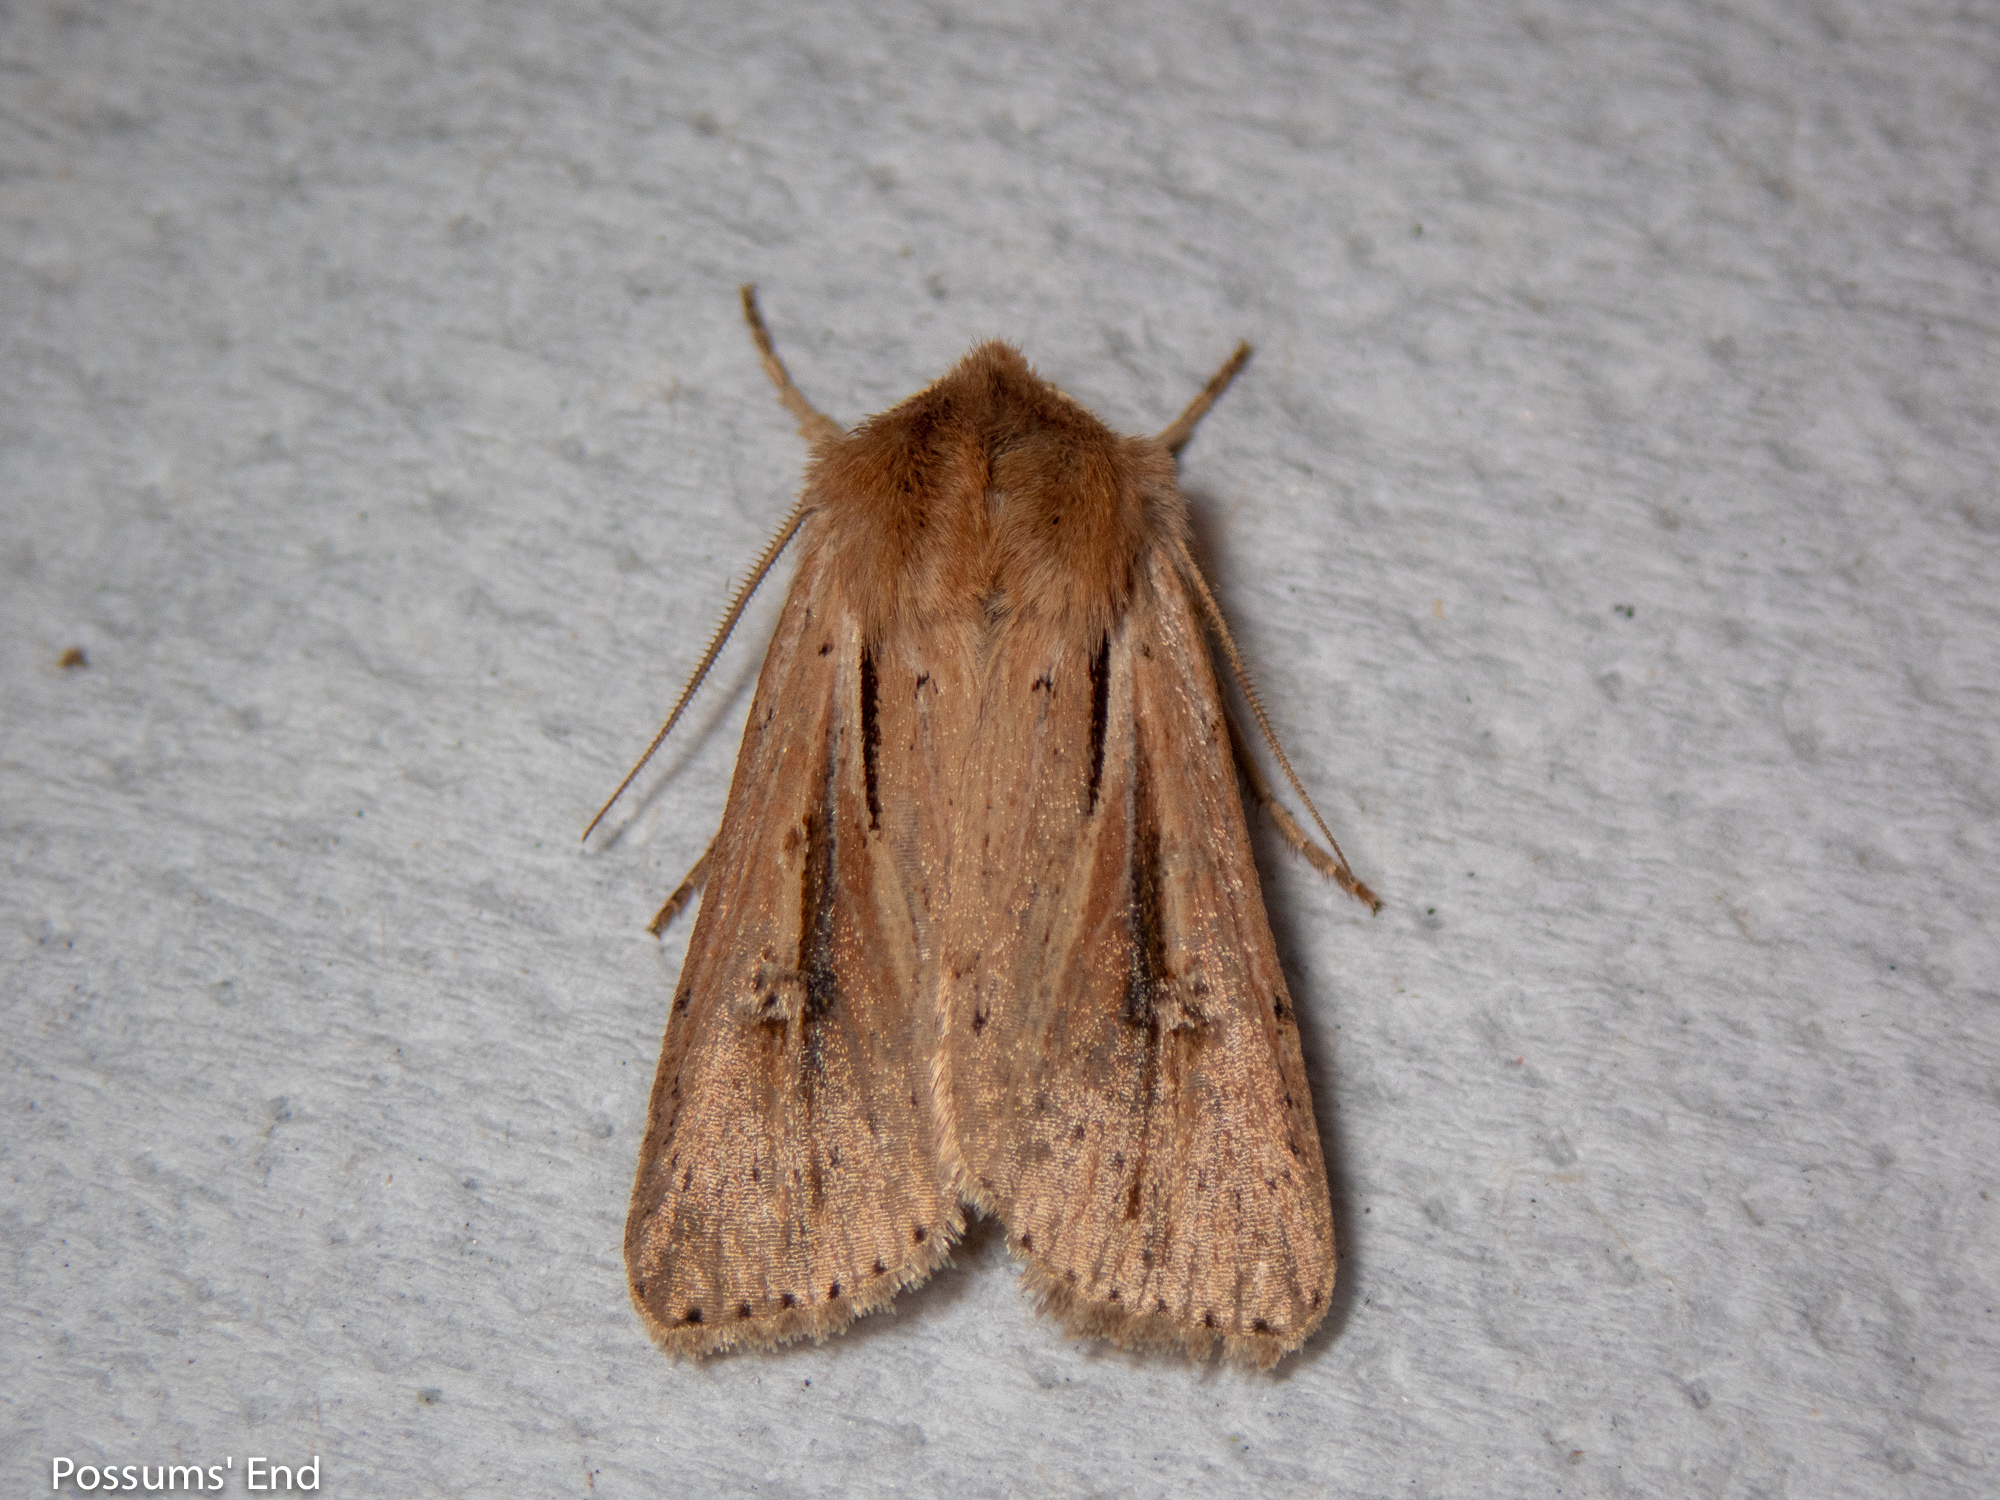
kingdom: Animalia
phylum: Arthropoda
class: Insecta
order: Lepidoptera
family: Noctuidae
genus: Ichneutica
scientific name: Ichneutica propria
